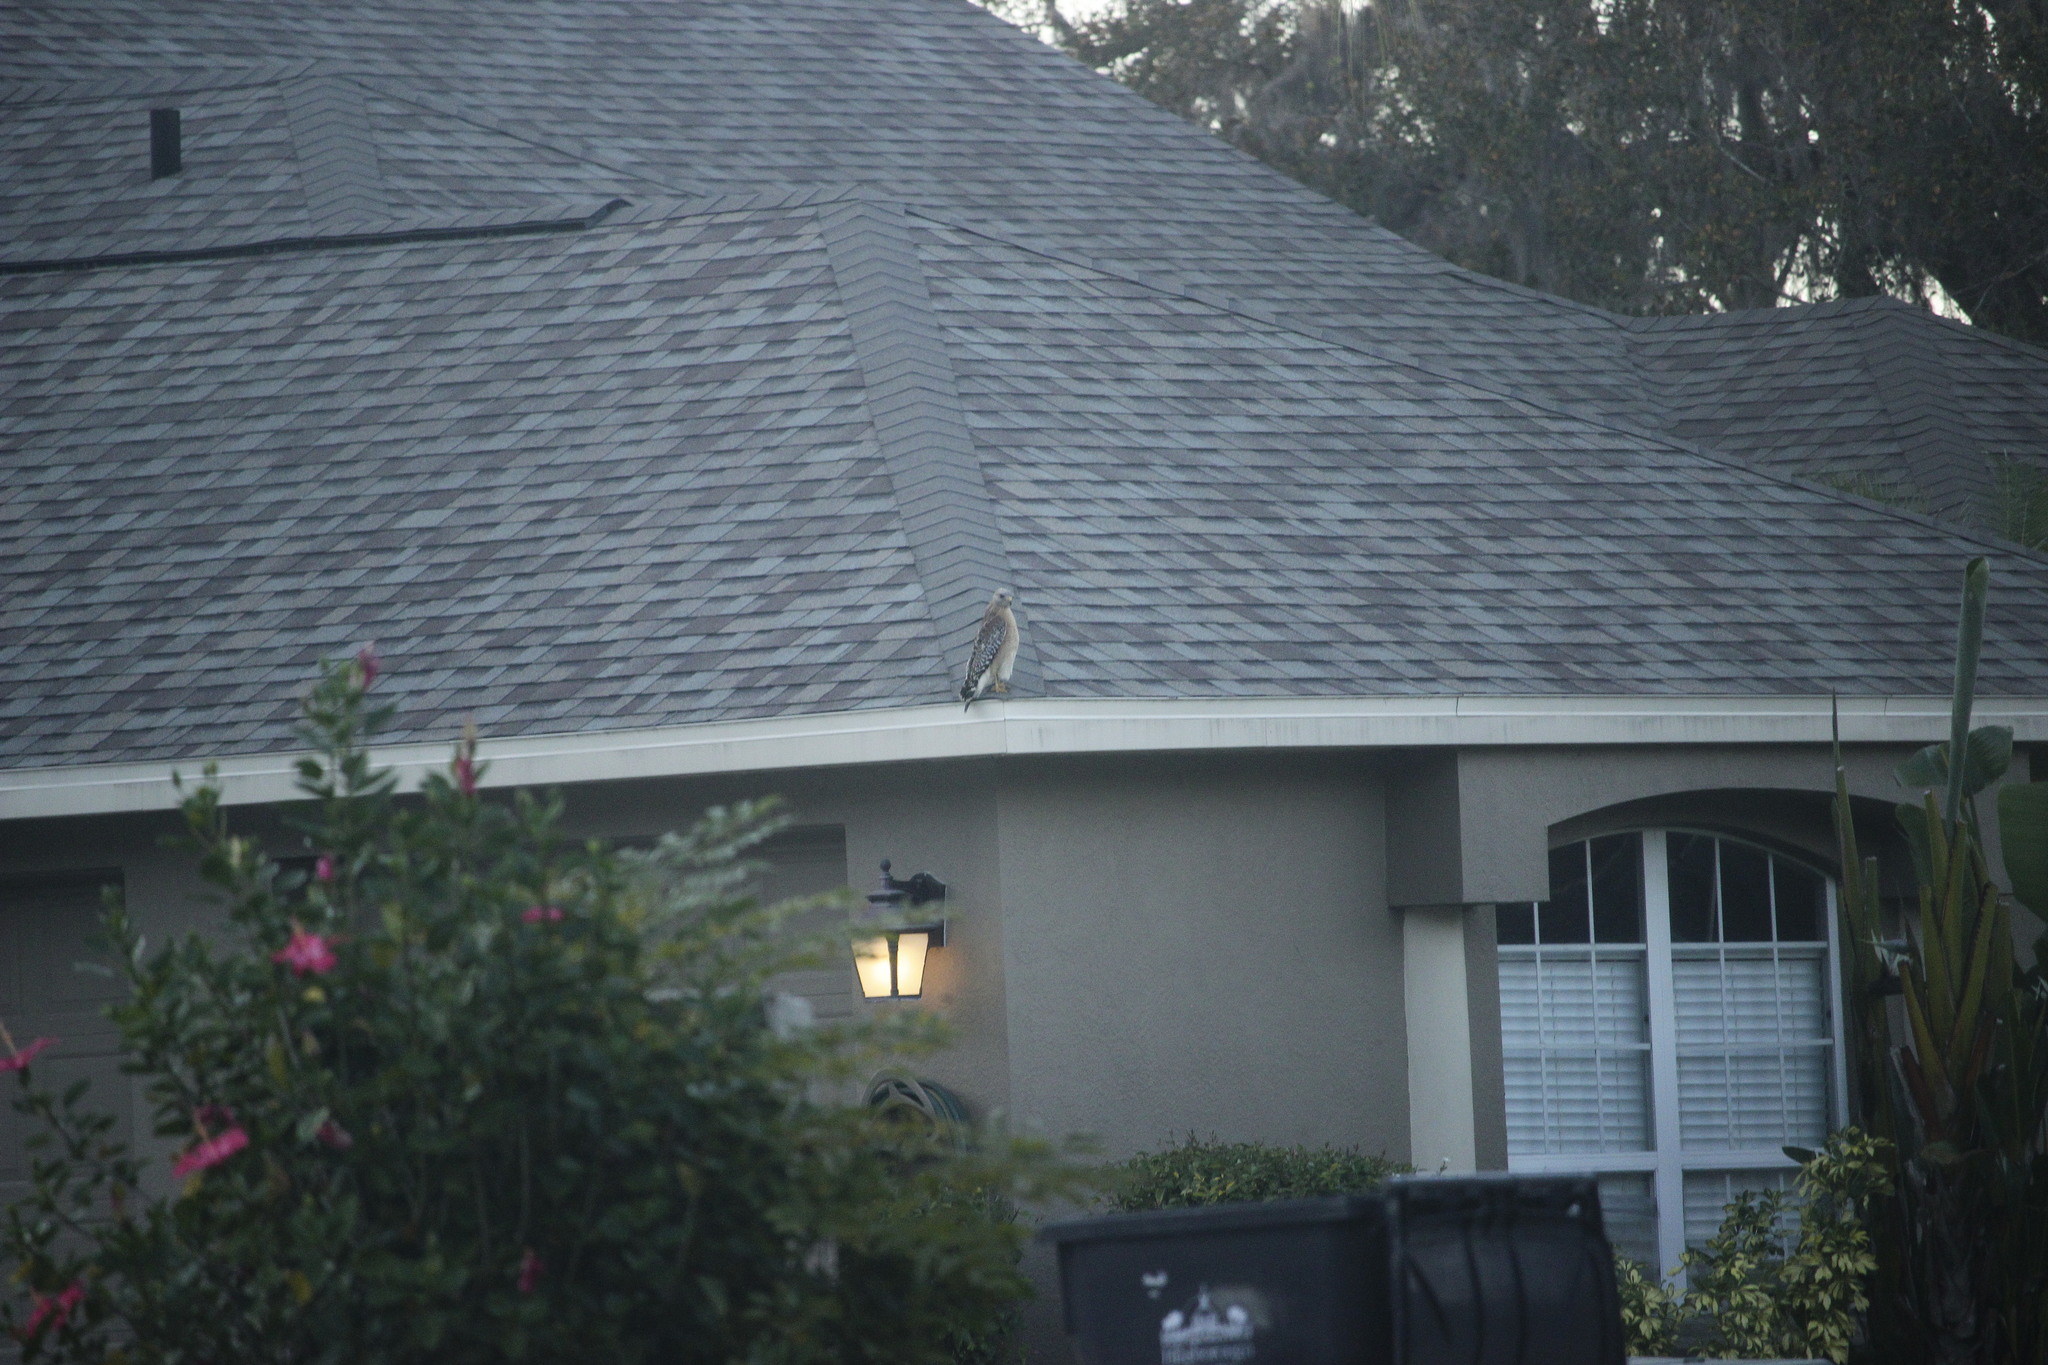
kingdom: Animalia
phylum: Chordata
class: Aves
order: Accipitriformes
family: Accipitridae
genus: Buteo
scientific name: Buteo lineatus
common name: Red-shouldered hawk
